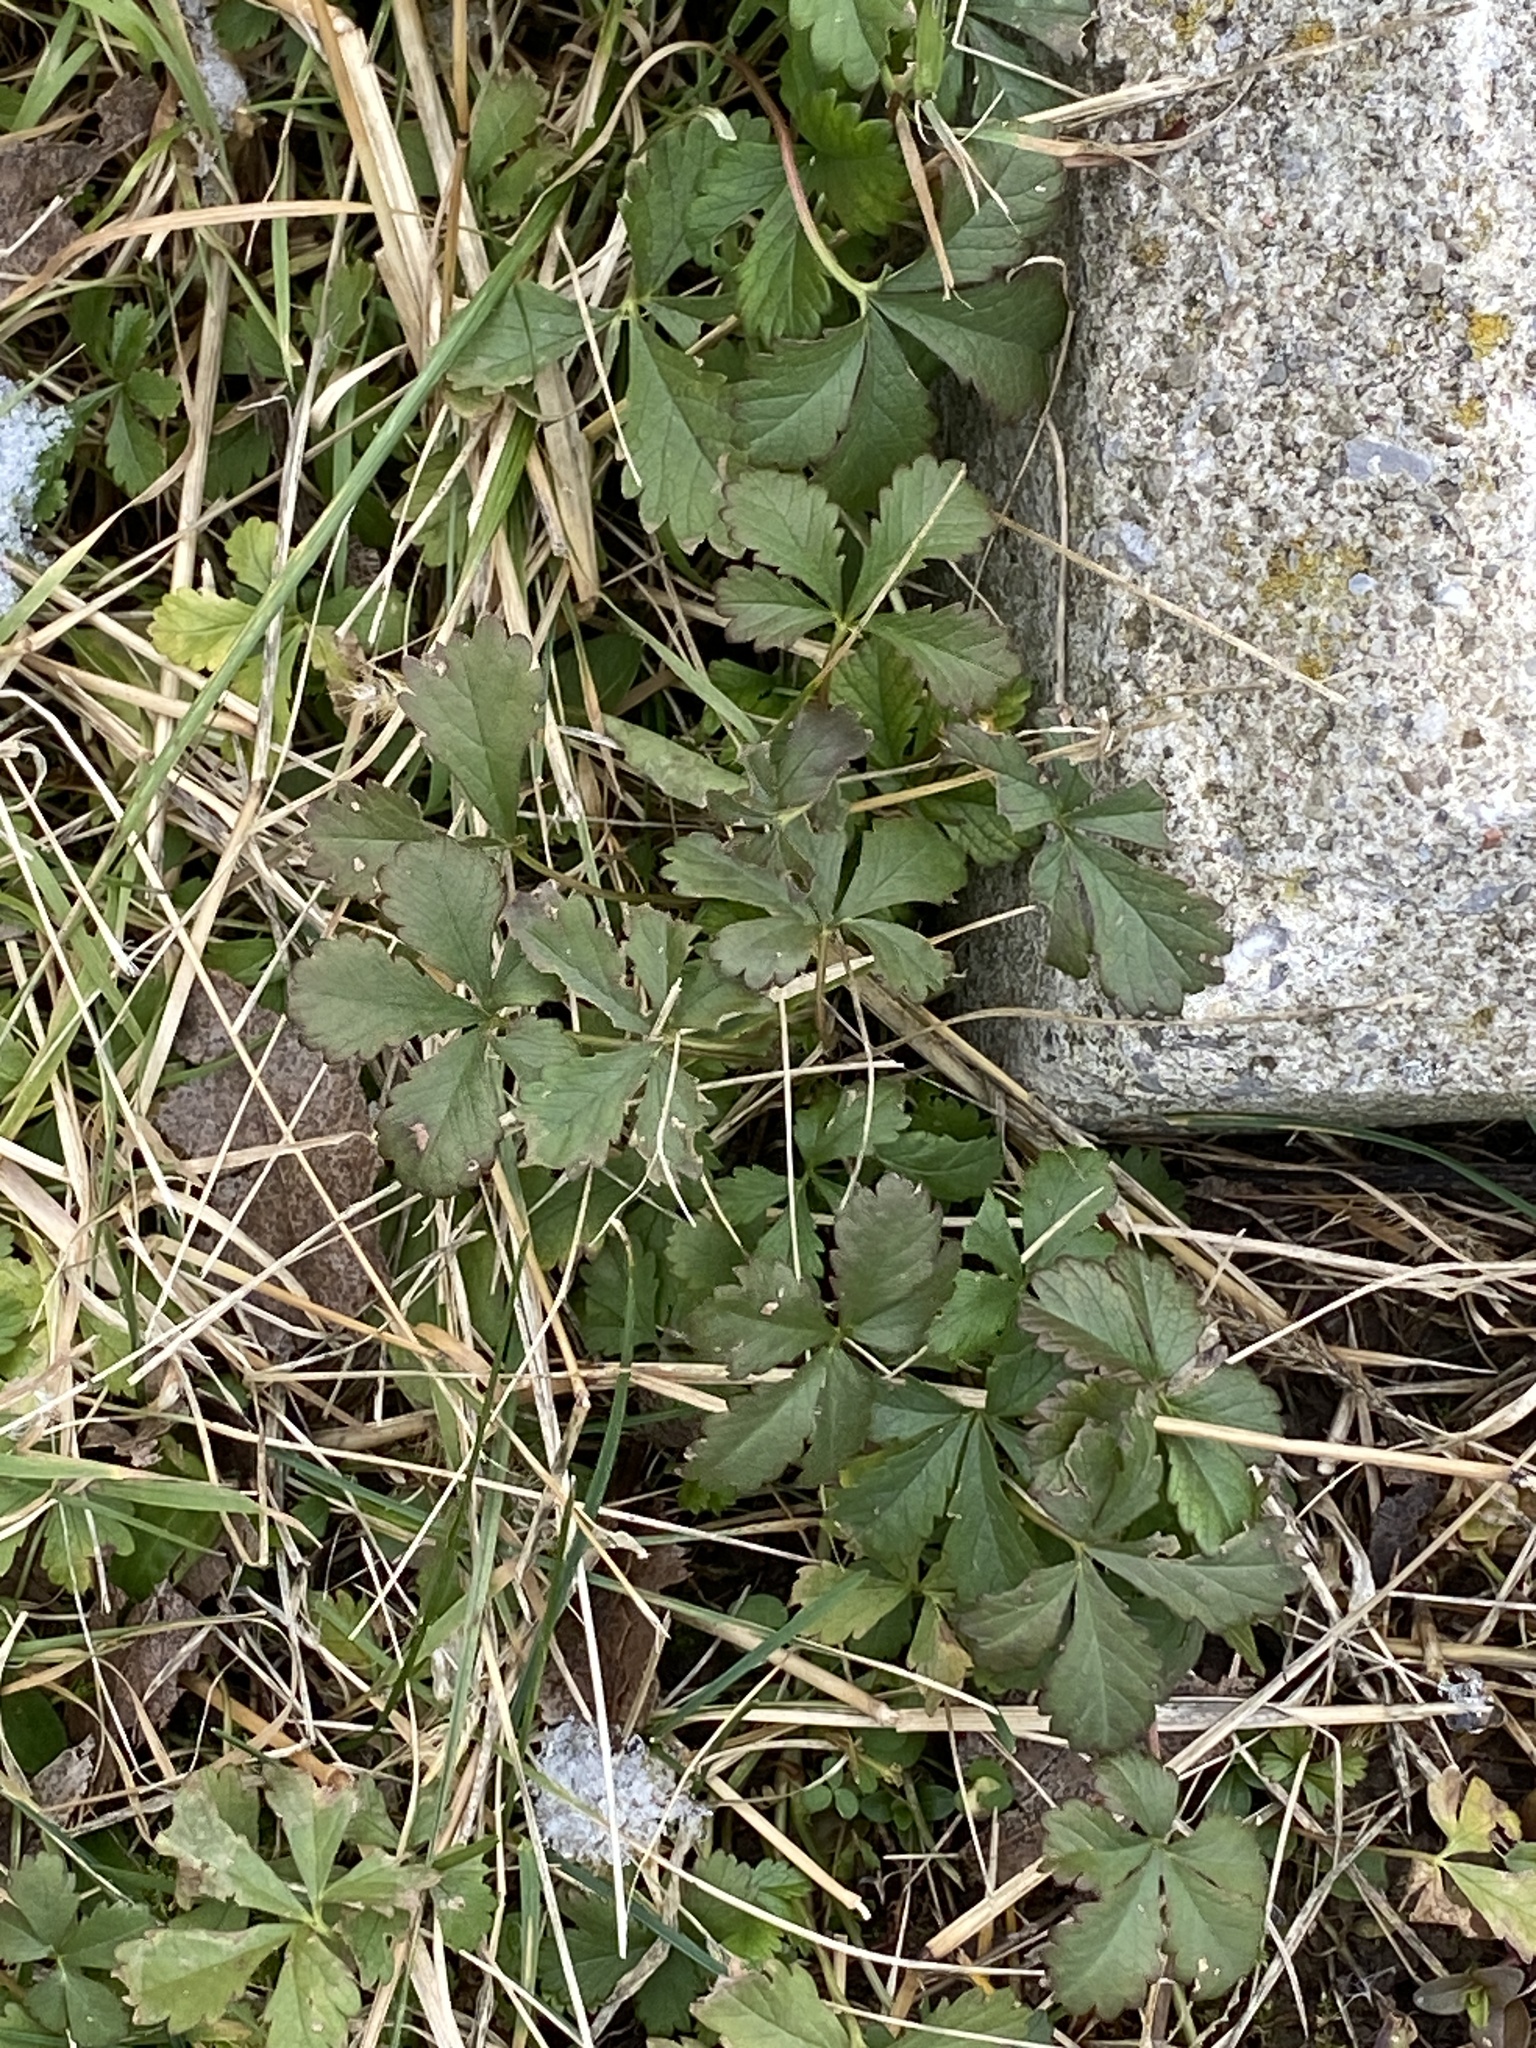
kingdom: Plantae
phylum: Tracheophyta
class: Magnoliopsida
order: Rosales
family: Rosaceae
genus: Potentilla
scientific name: Potentilla reptans
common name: Creeping cinquefoil
